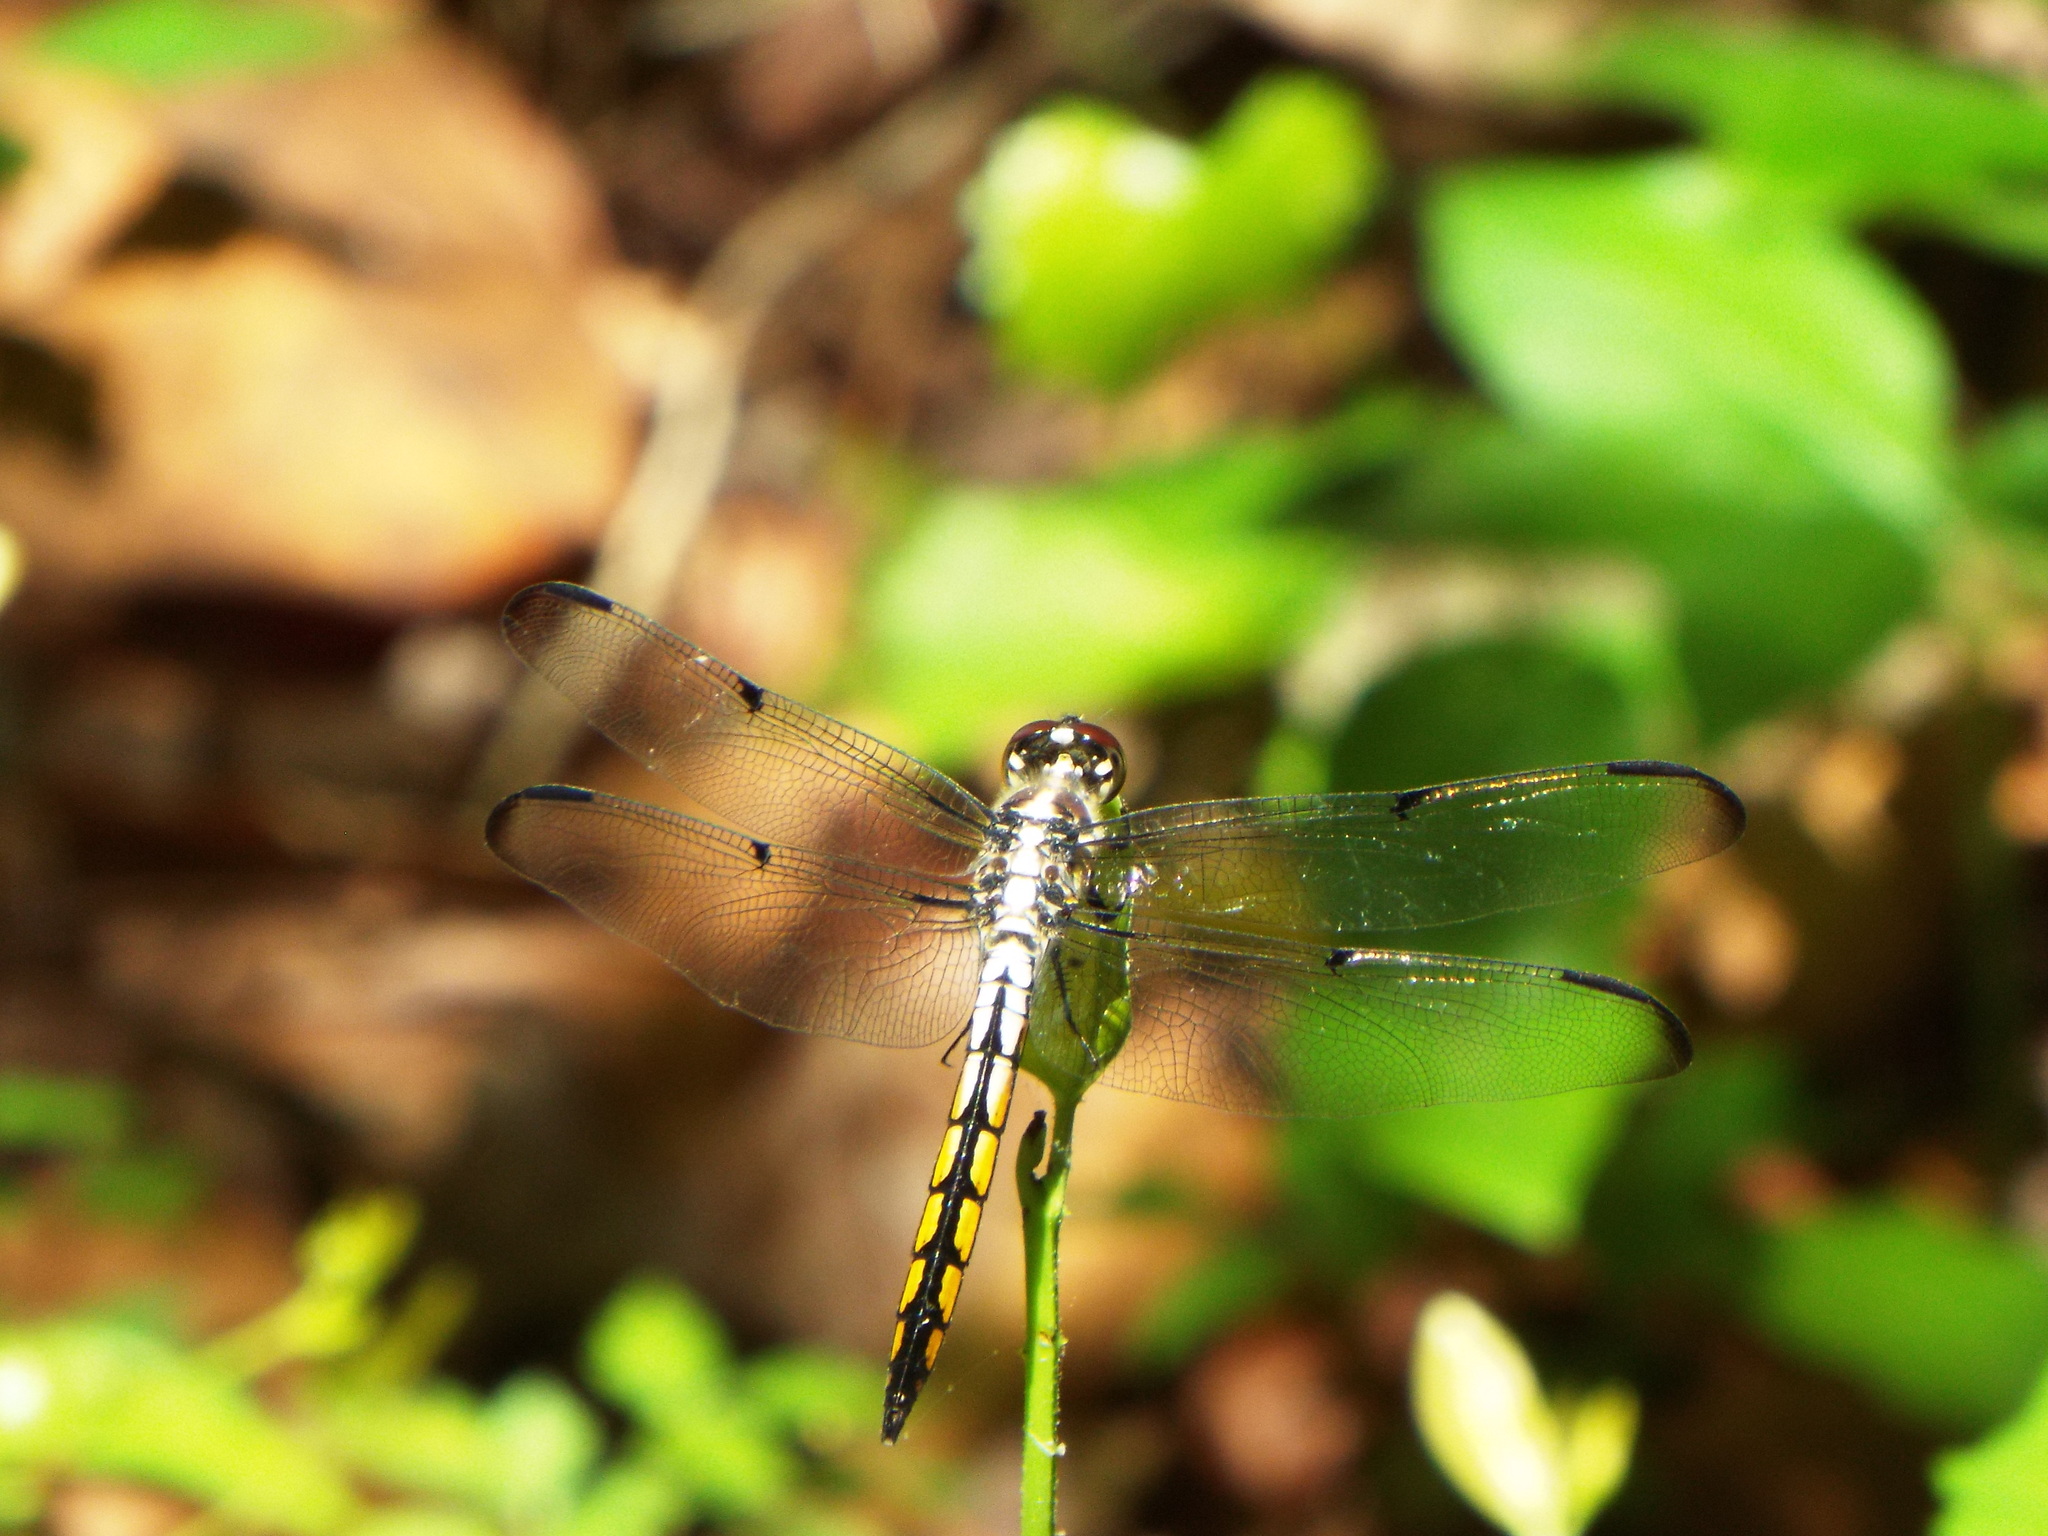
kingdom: Animalia
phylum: Arthropoda
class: Insecta
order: Odonata
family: Libellulidae
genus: Libellula
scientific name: Libellula vibrans
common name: Great blue skimmer
